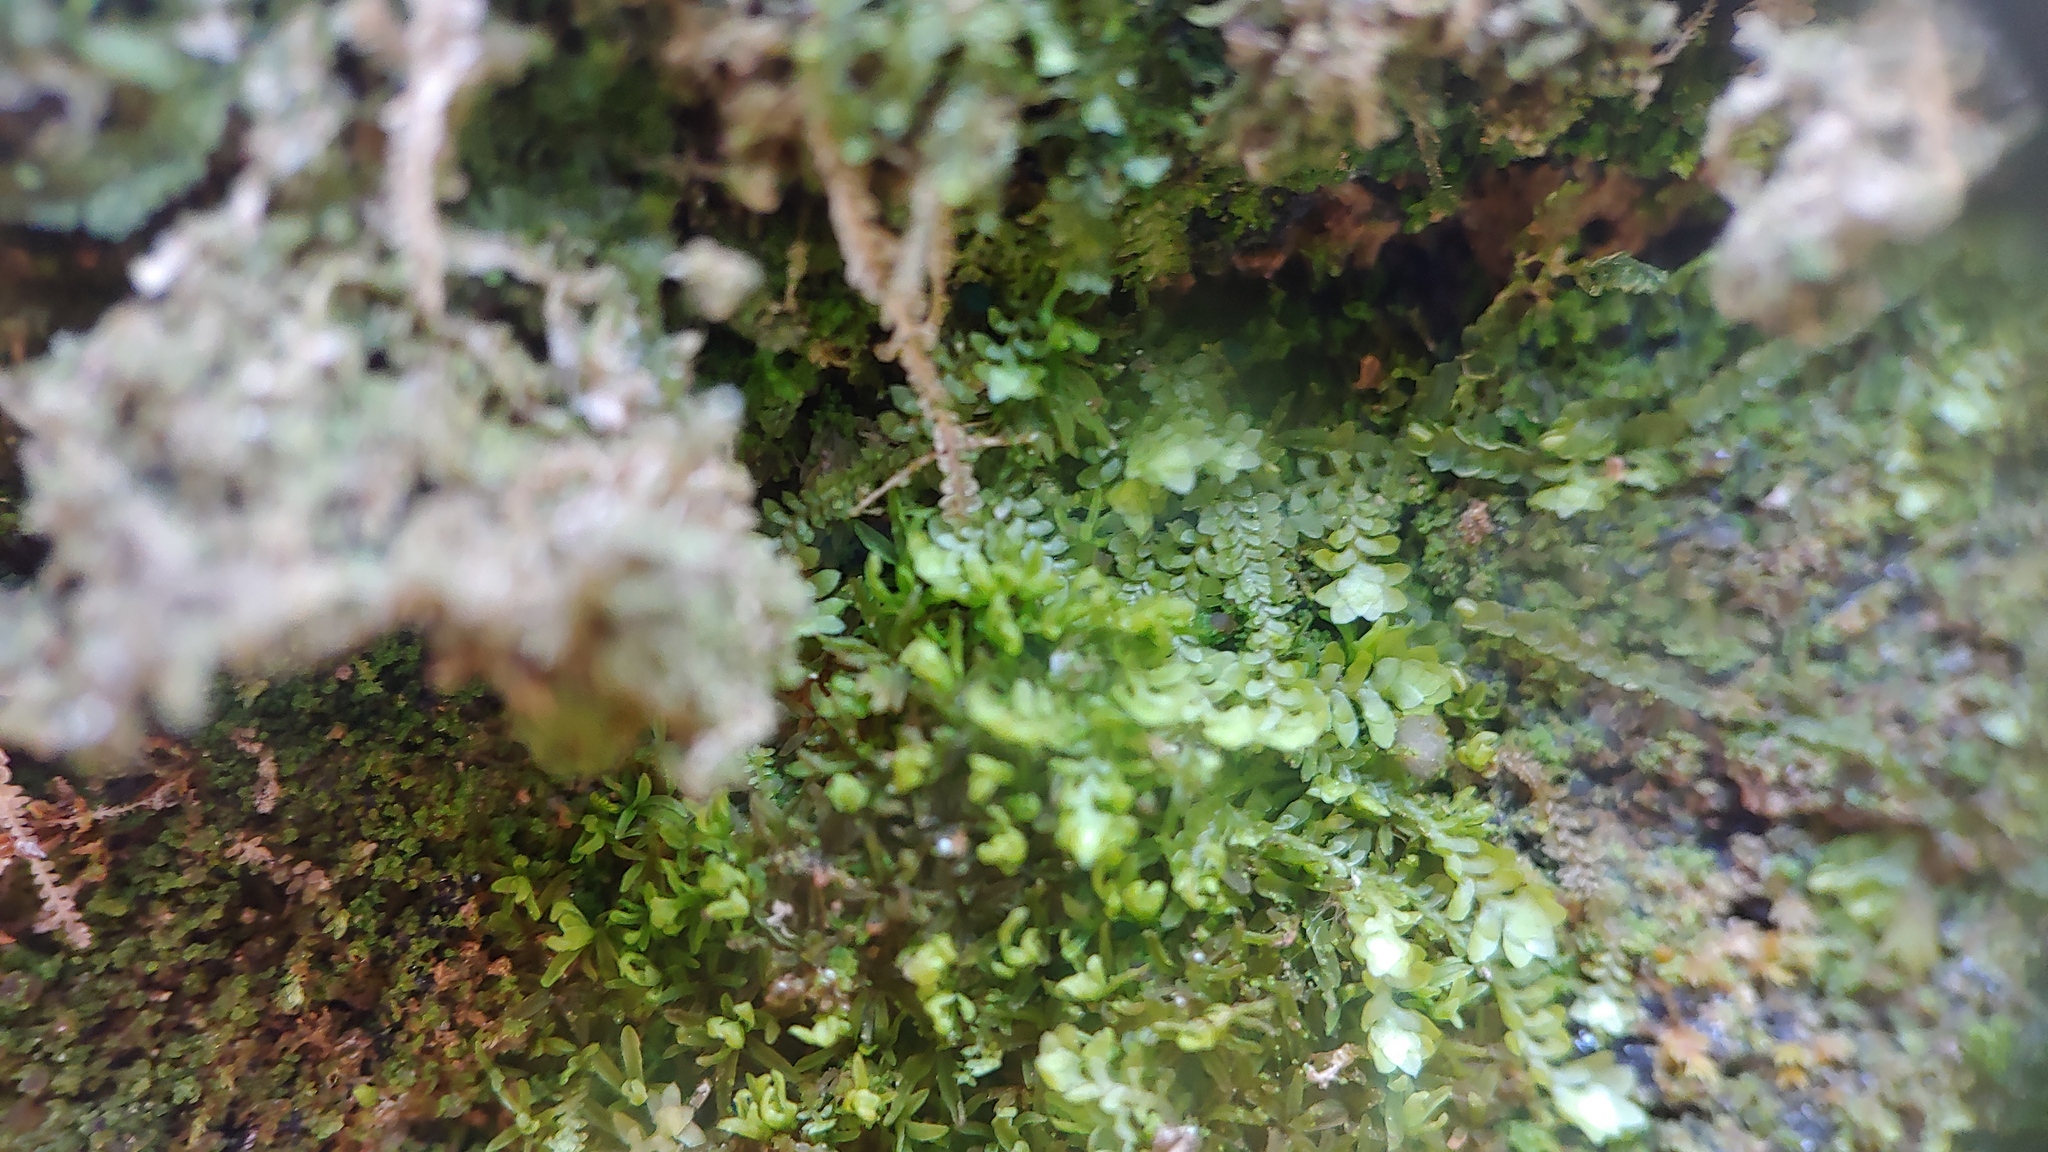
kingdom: Plantae
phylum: Marchantiophyta
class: Jungermanniopsida
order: Jungermanniales
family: Scapaniaceae
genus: Diplophyllum
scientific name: Diplophyllum apiculatum
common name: Sharp-pointed earwort
